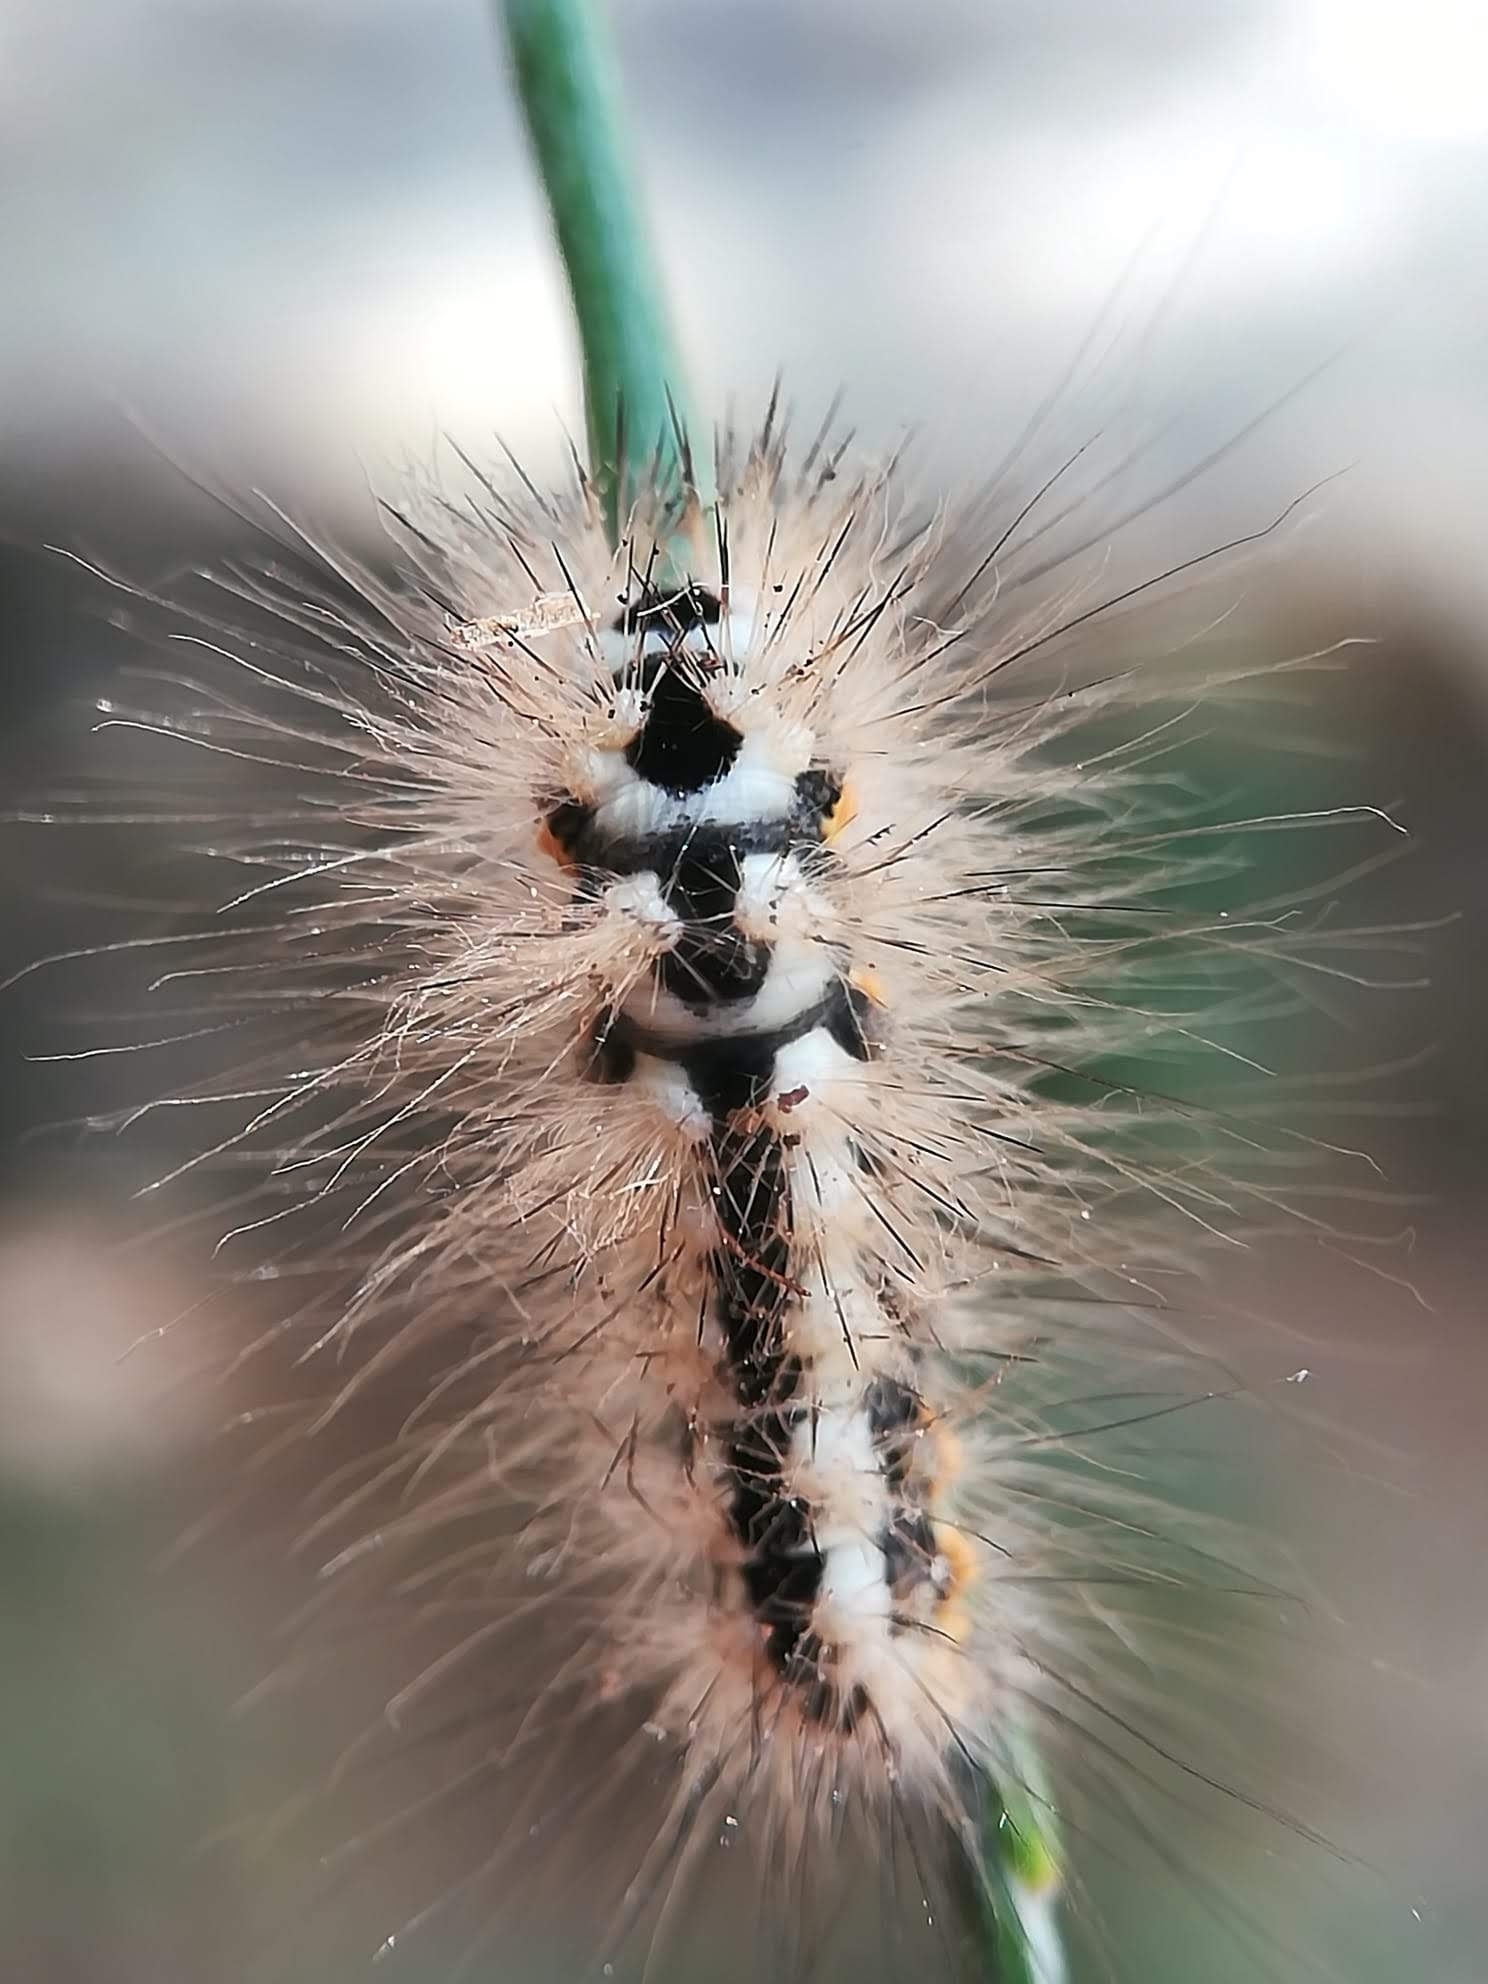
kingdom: Animalia
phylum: Arthropoda
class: Insecta
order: Lepidoptera
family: Noctuidae
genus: Acronicta
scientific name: Acronicta euphorbiae
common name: Sweet gale moth
